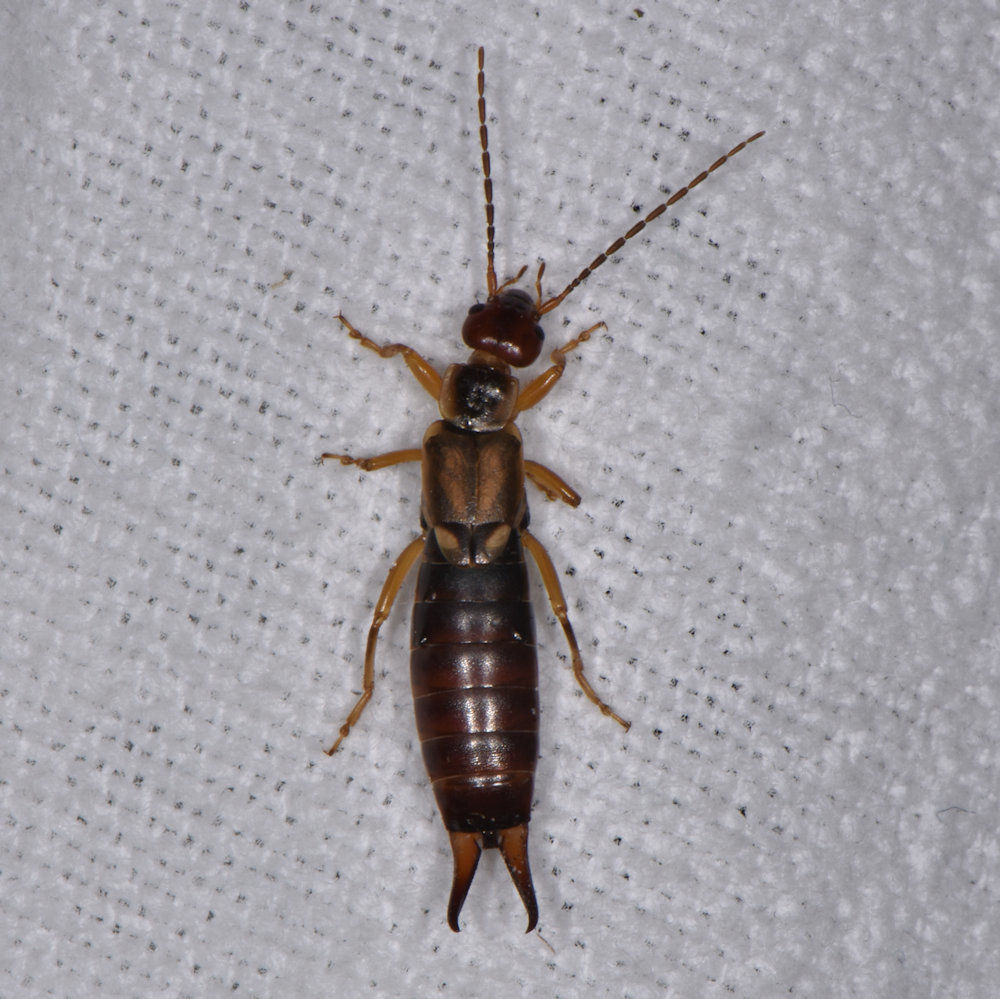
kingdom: Animalia
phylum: Arthropoda
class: Insecta
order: Dermaptera
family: Forficulidae
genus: Forficula
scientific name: Forficula
